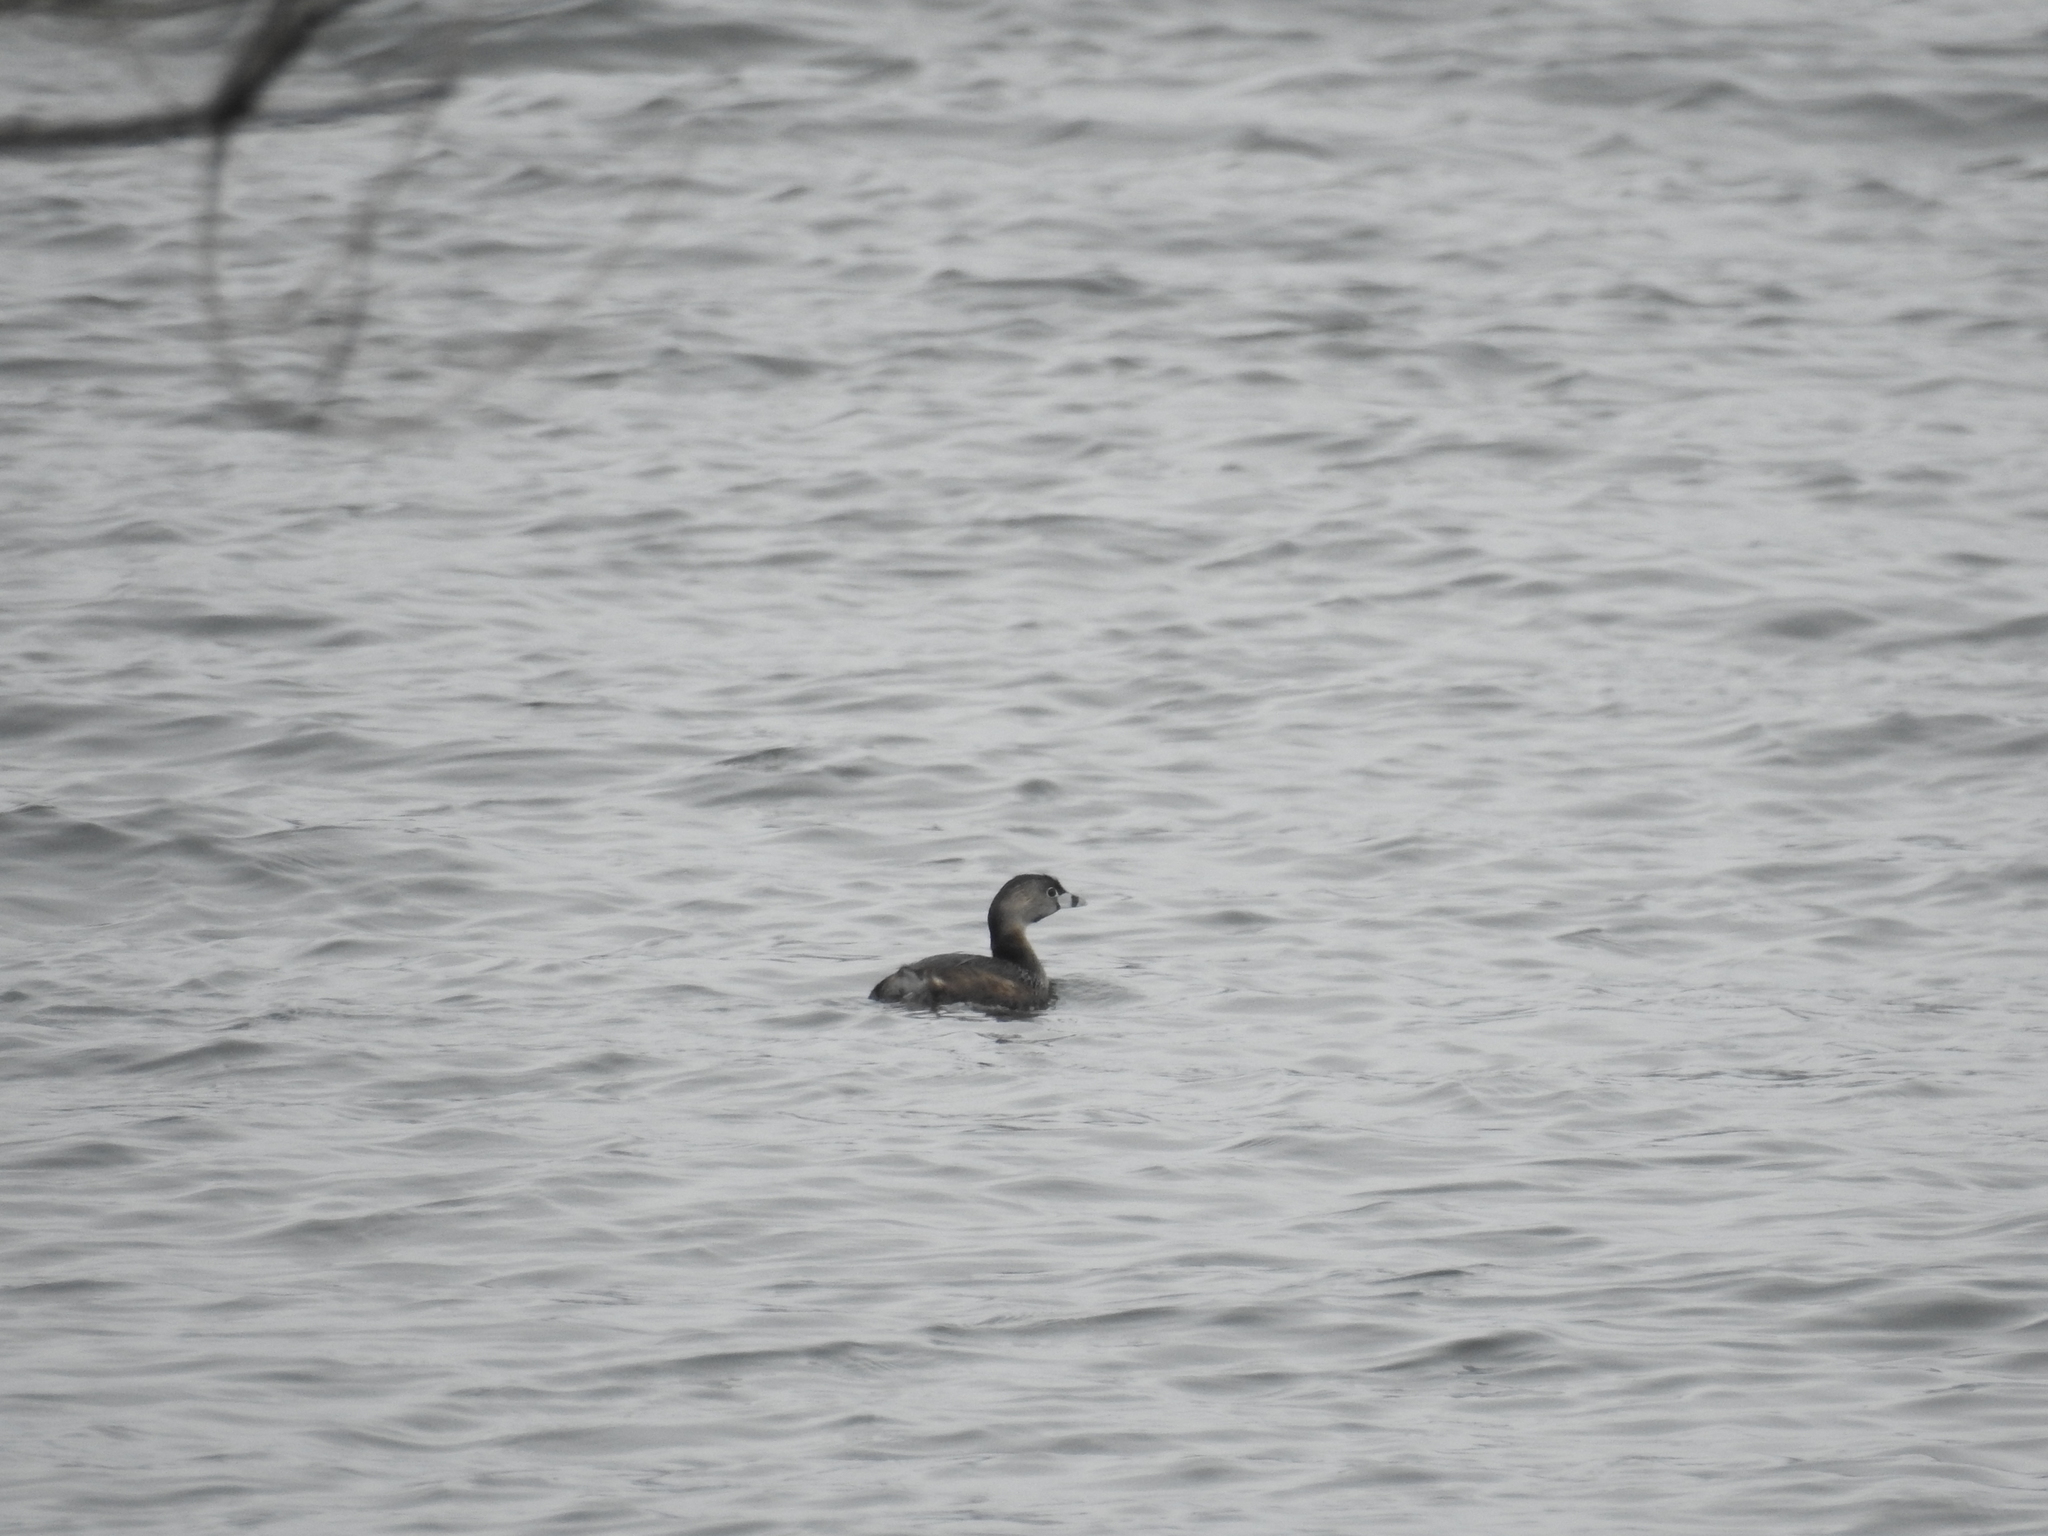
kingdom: Animalia
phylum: Chordata
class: Aves
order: Podicipediformes
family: Podicipedidae
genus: Podilymbus
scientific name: Podilymbus podiceps
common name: Pied-billed grebe
